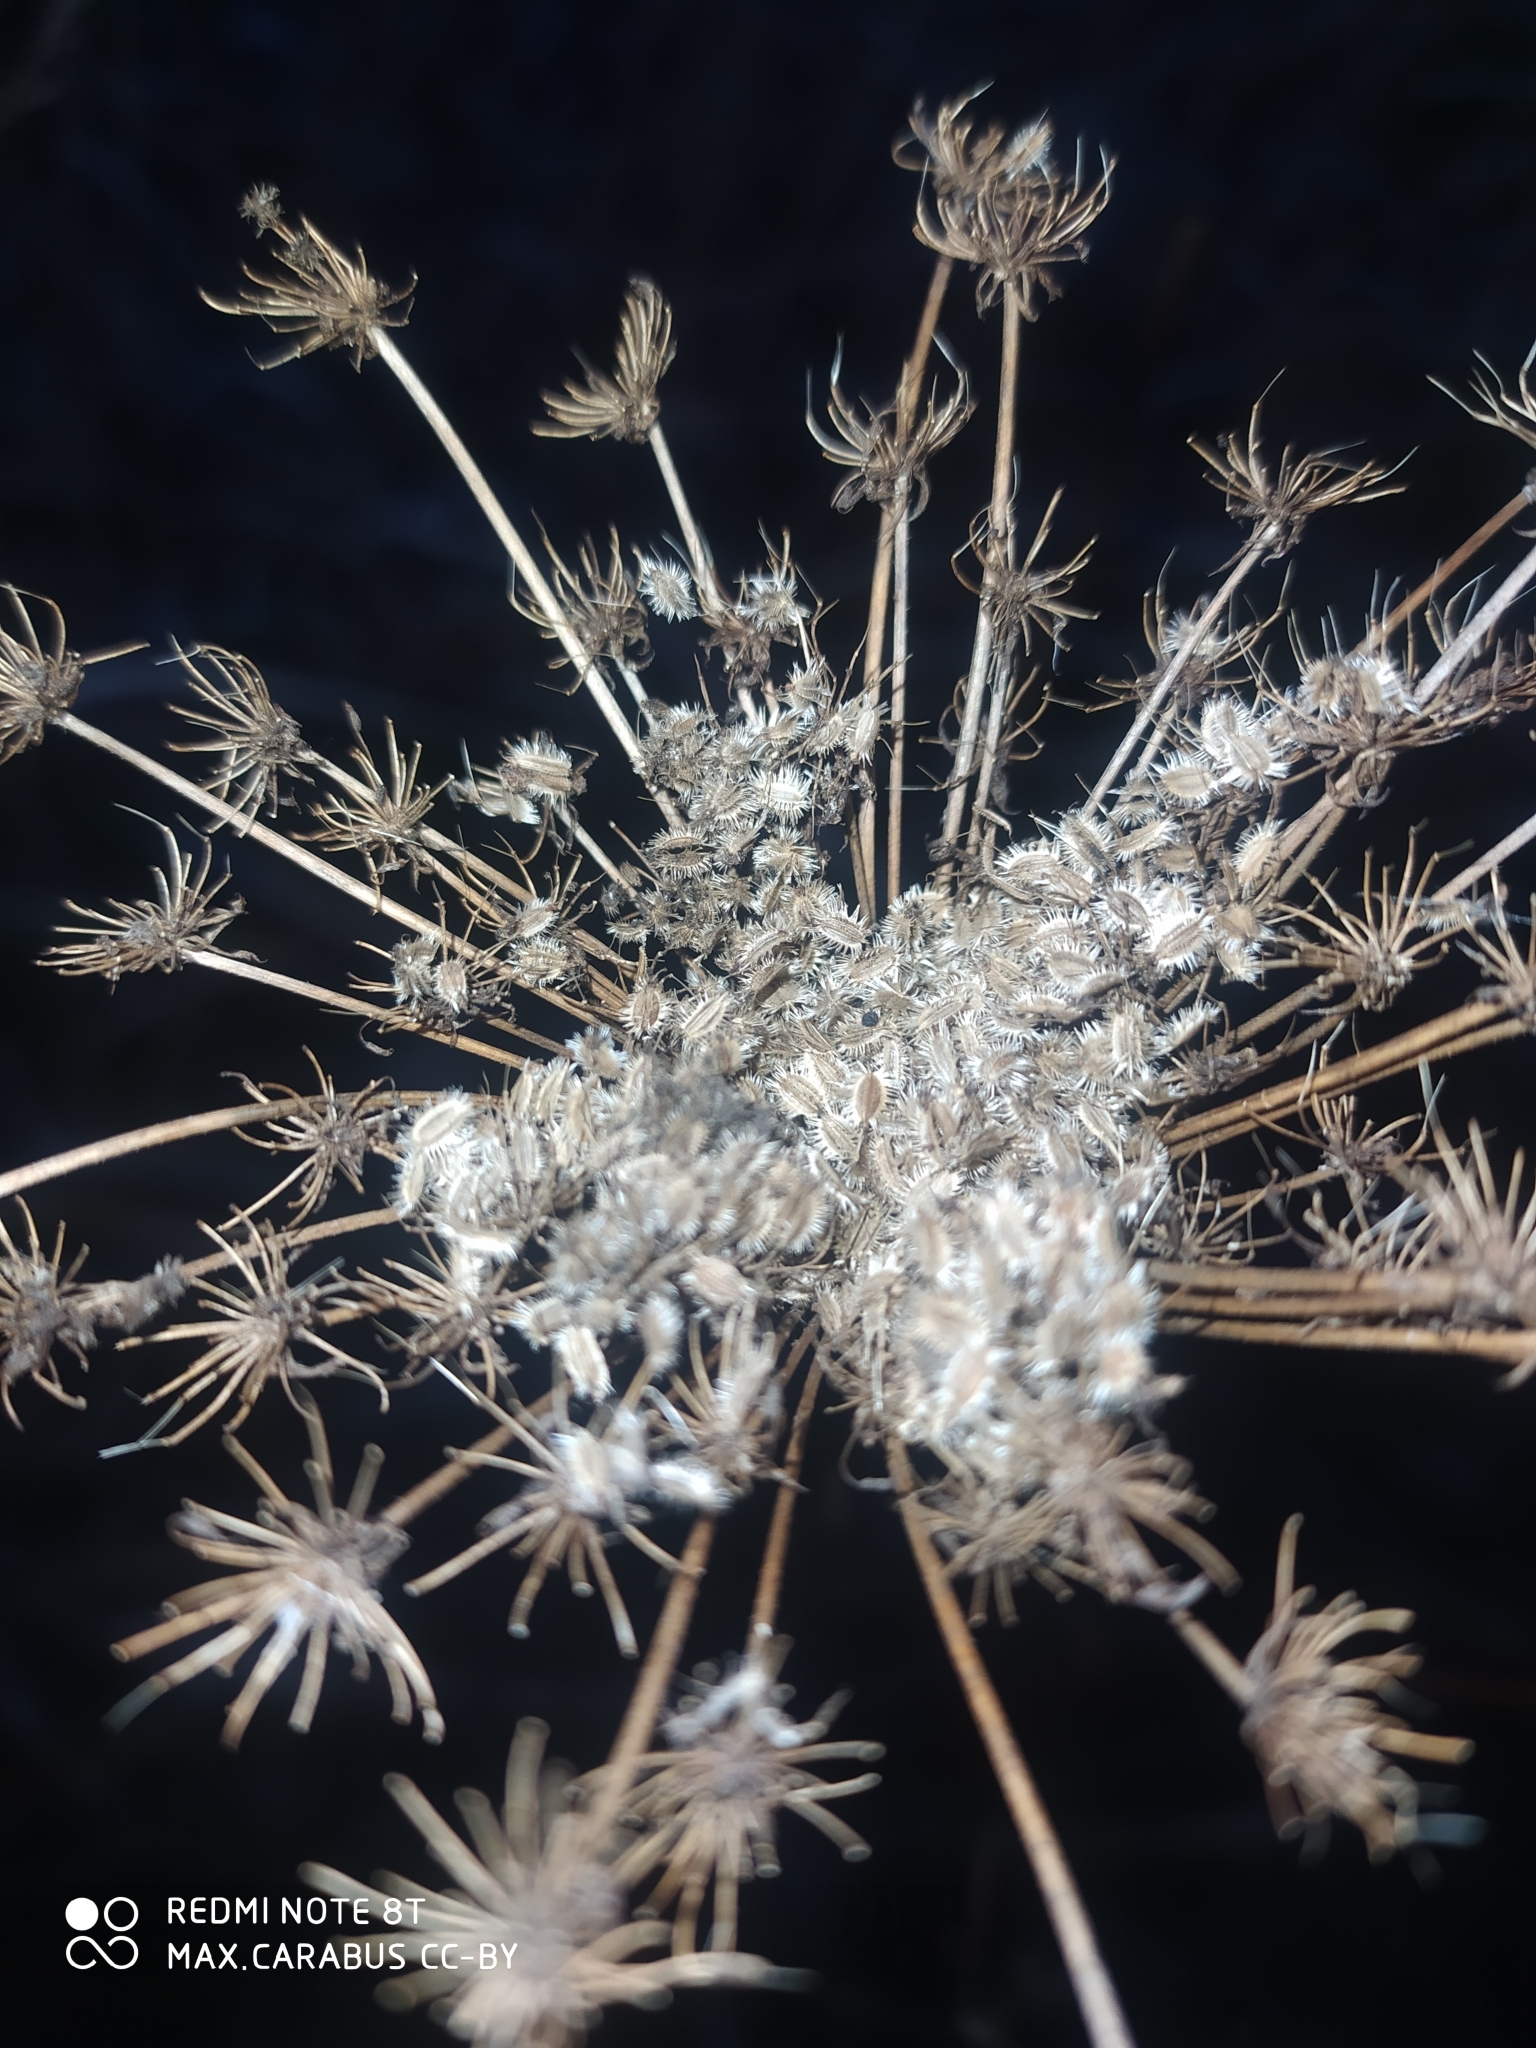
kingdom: Plantae
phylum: Tracheophyta
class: Magnoliopsida
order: Apiales
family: Apiaceae
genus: Daucus
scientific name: Daucus carota
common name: Wild carrot
